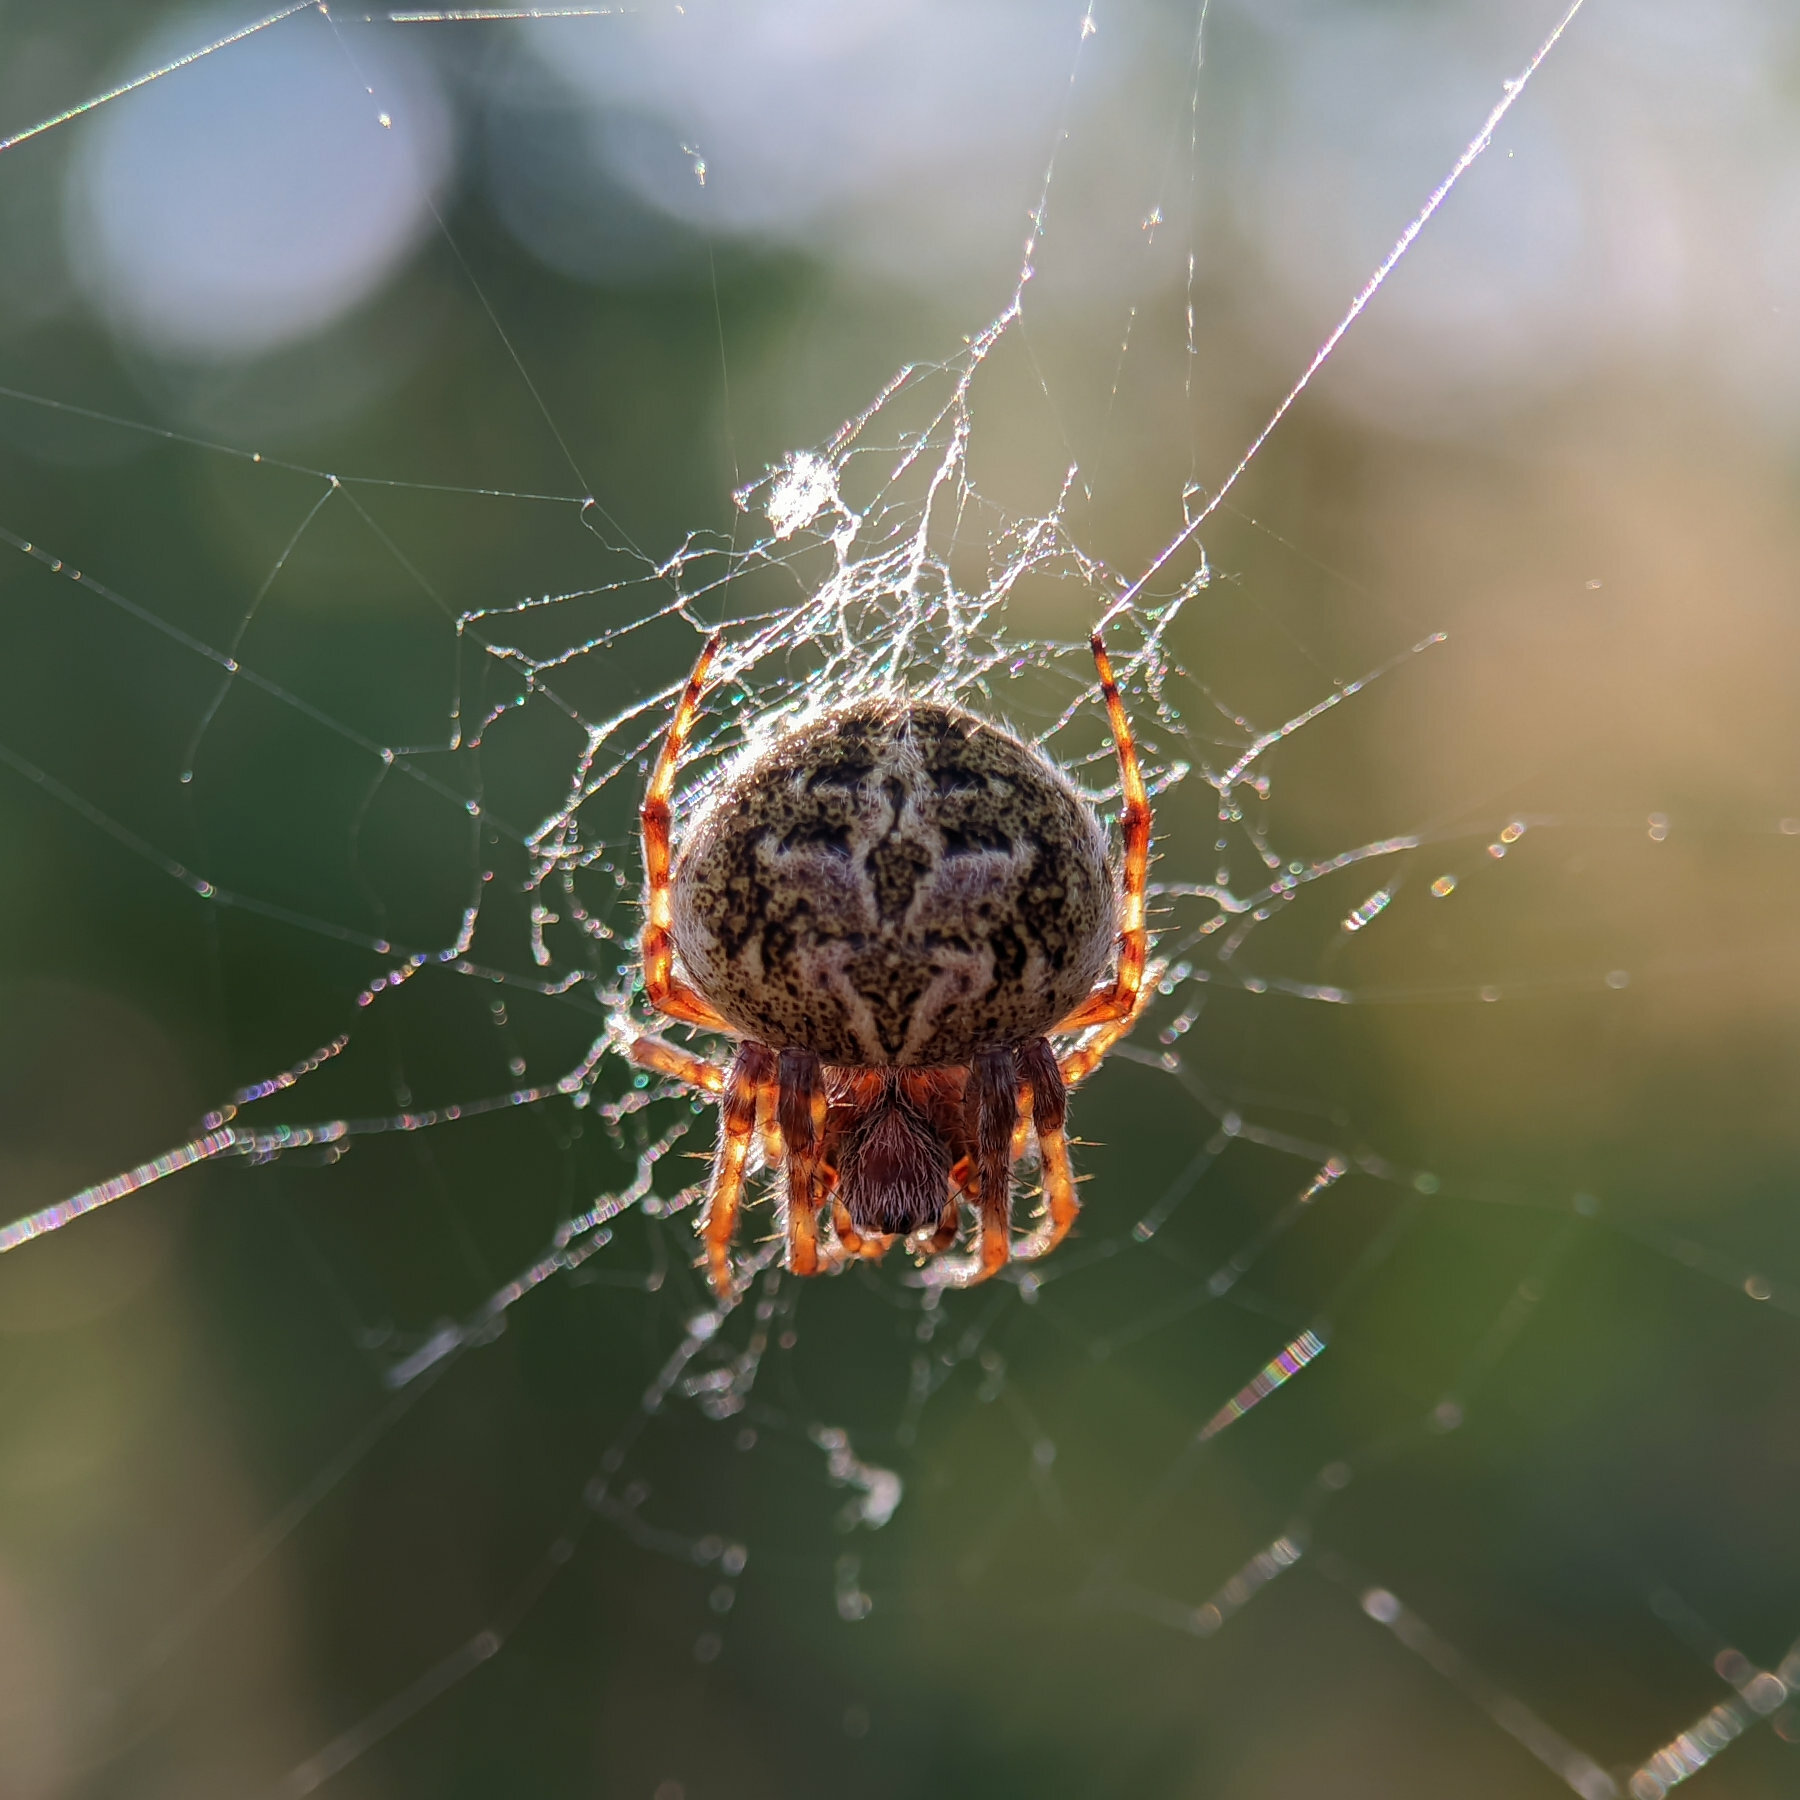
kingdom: Animalia
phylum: Arthropoda
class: Arachnida
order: Araneae
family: Araneidae
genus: Agalenatea
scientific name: Agalenatea redii
